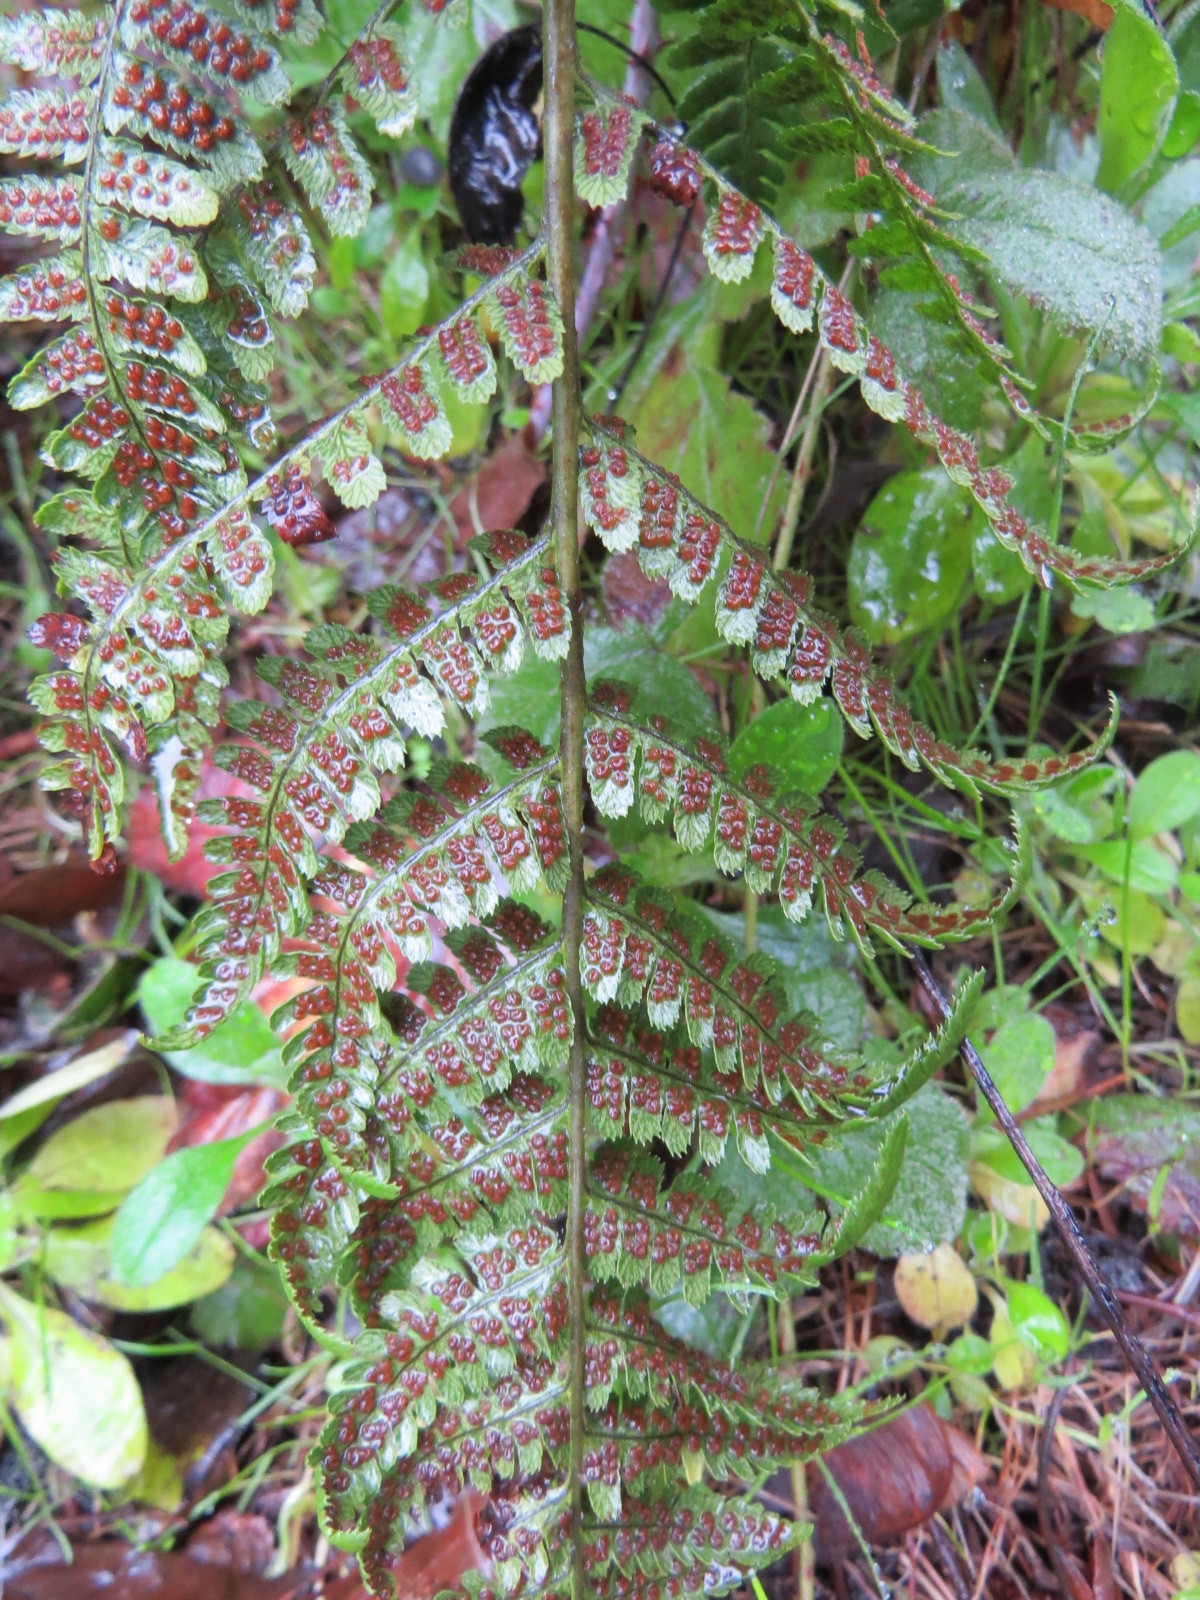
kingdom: Plantae
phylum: Tracheophyta
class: Polypodiopsida
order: Polypodiales
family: Dryopteridaceae
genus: Dryopteris
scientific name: Dryopteris arguta
